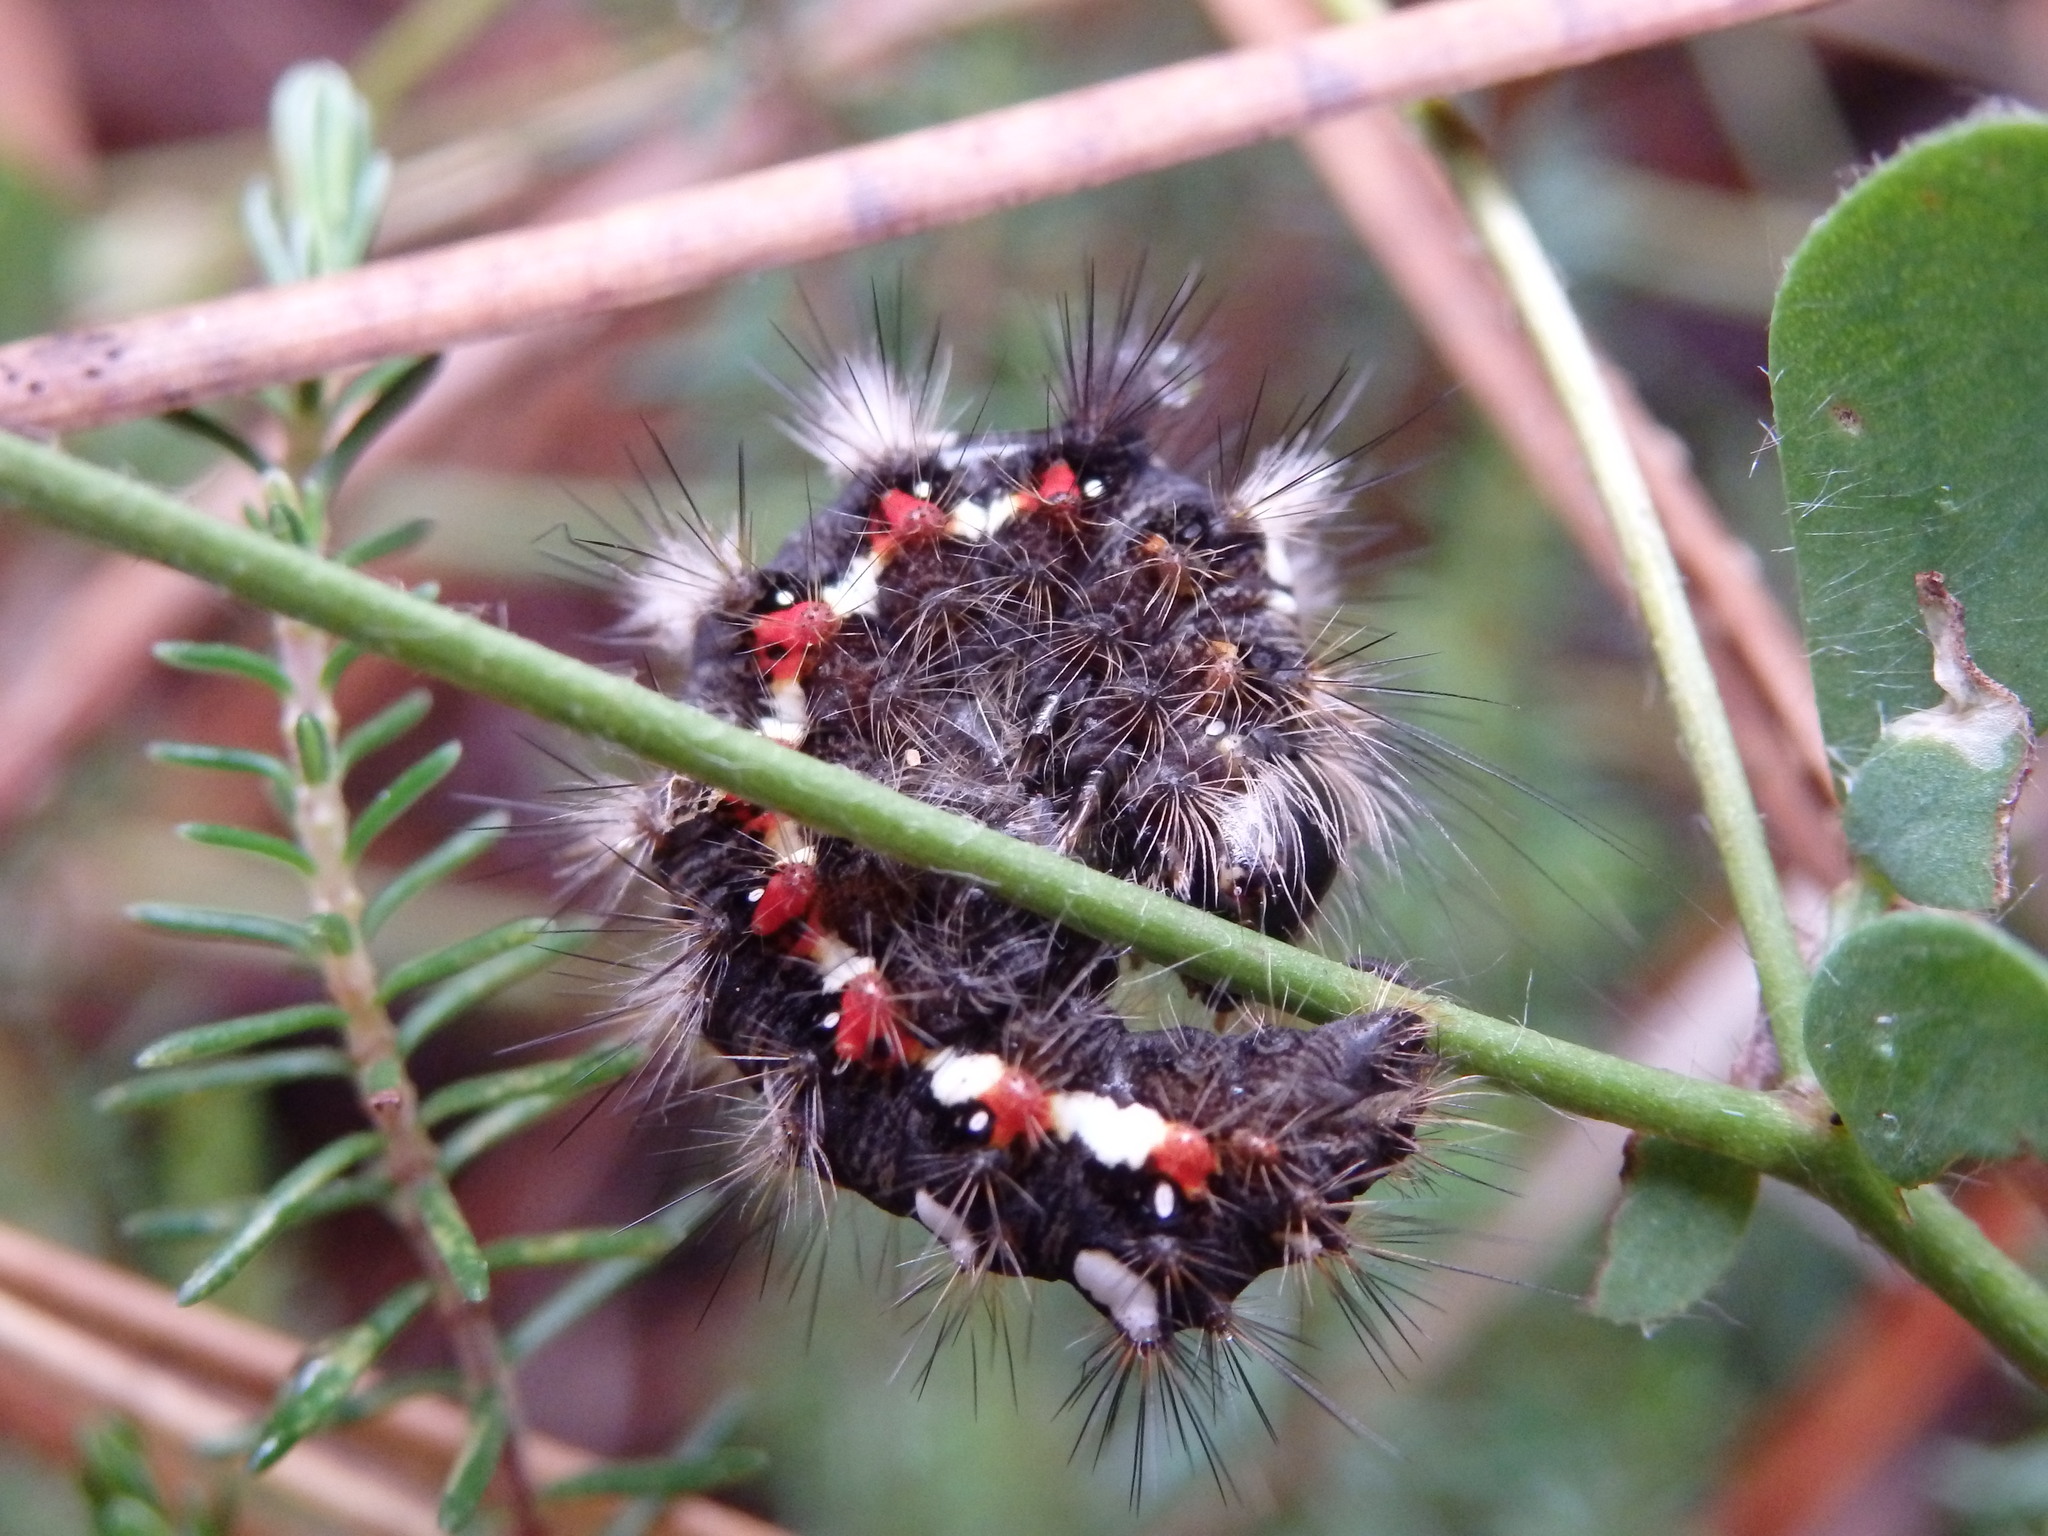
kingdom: Animalia
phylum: Arthropoda
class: Insecta
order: Lepidoptera
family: Noctuidae
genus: Acronicta
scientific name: Acronicta rumicis
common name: Knot grass
